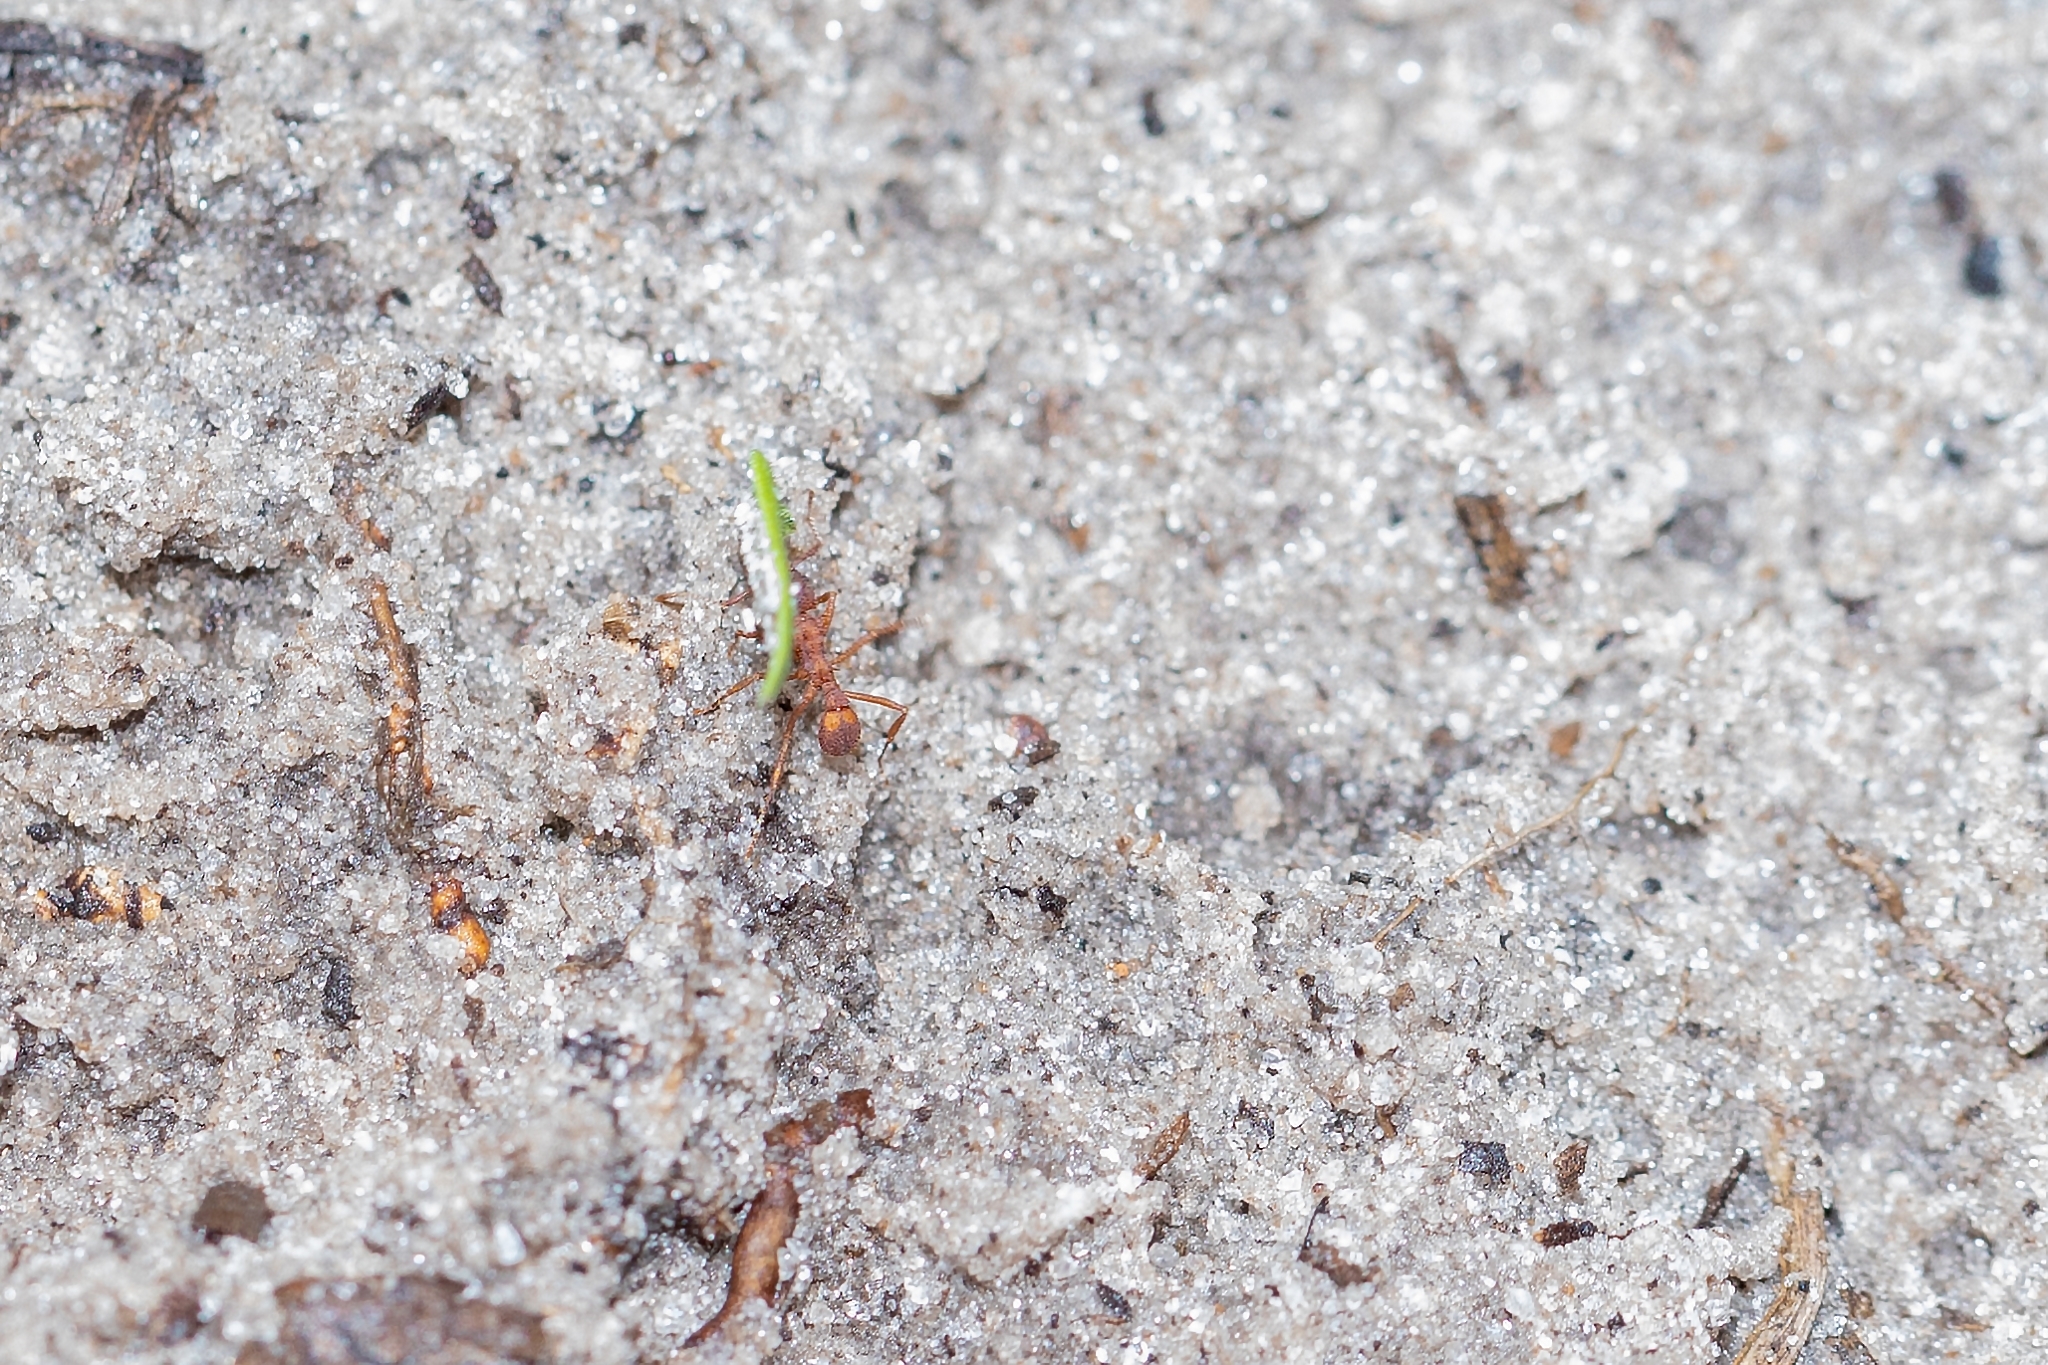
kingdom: Animalia
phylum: Arthropoda
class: Insecta
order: Hymenoptera
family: Formicidae
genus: Trachymyrmex
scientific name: Trachymyrmex septentrionalis
